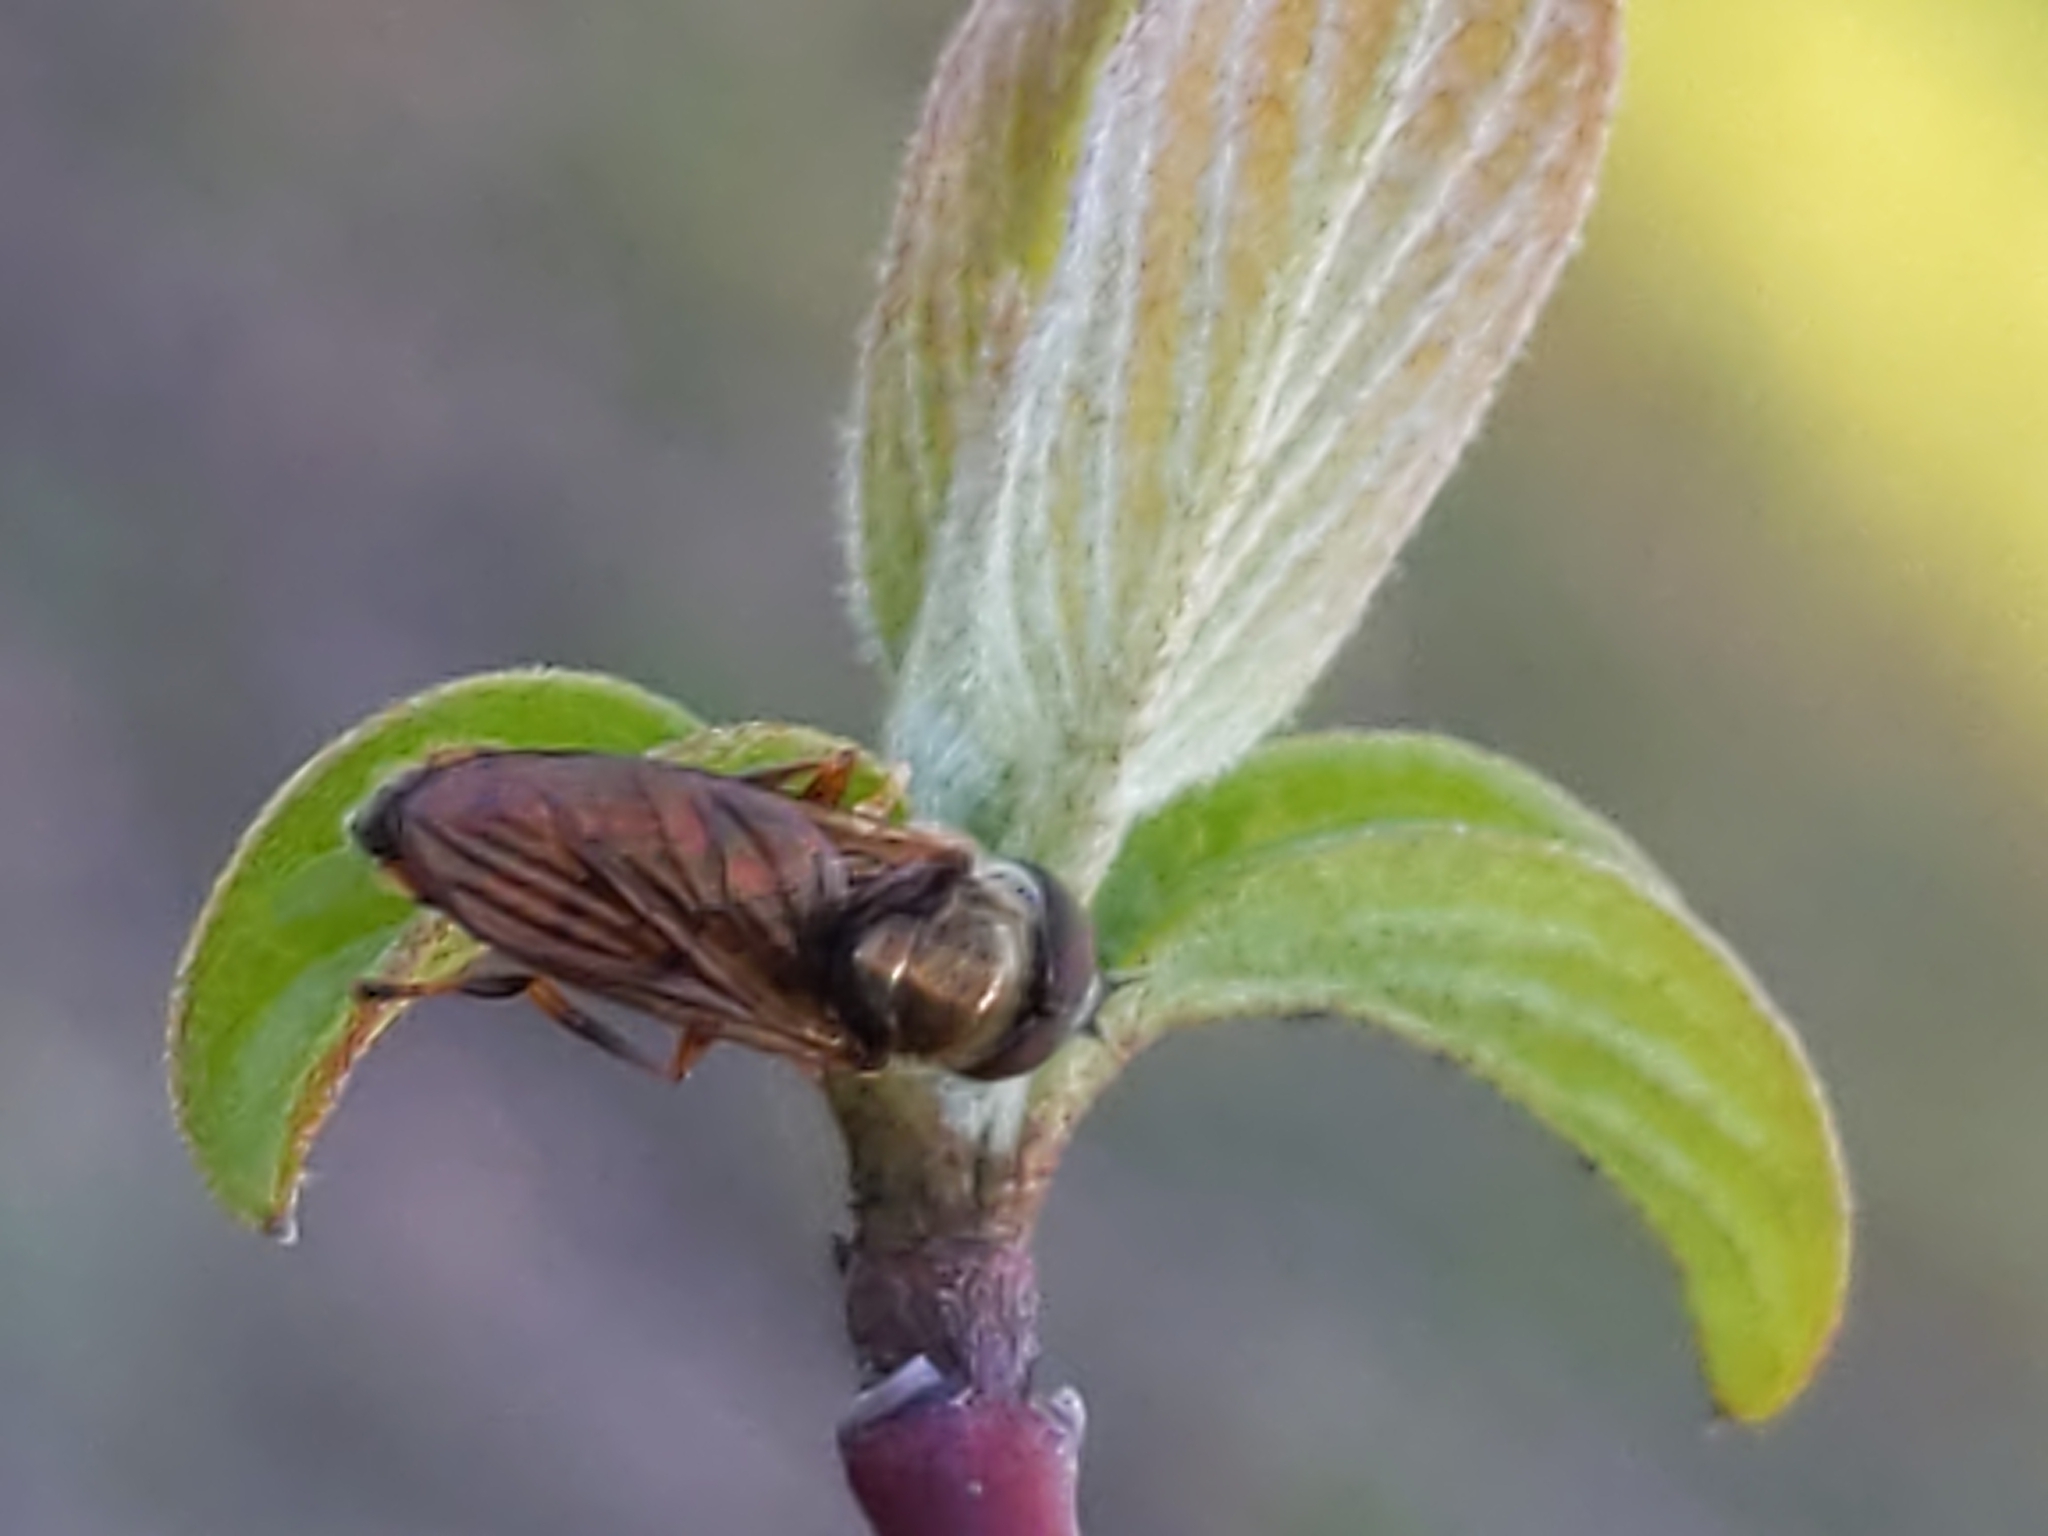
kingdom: Animalia
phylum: Arthropoda
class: Insecta
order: Diptera
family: Syrphidae
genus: Platycheirus
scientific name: Platycheirus
